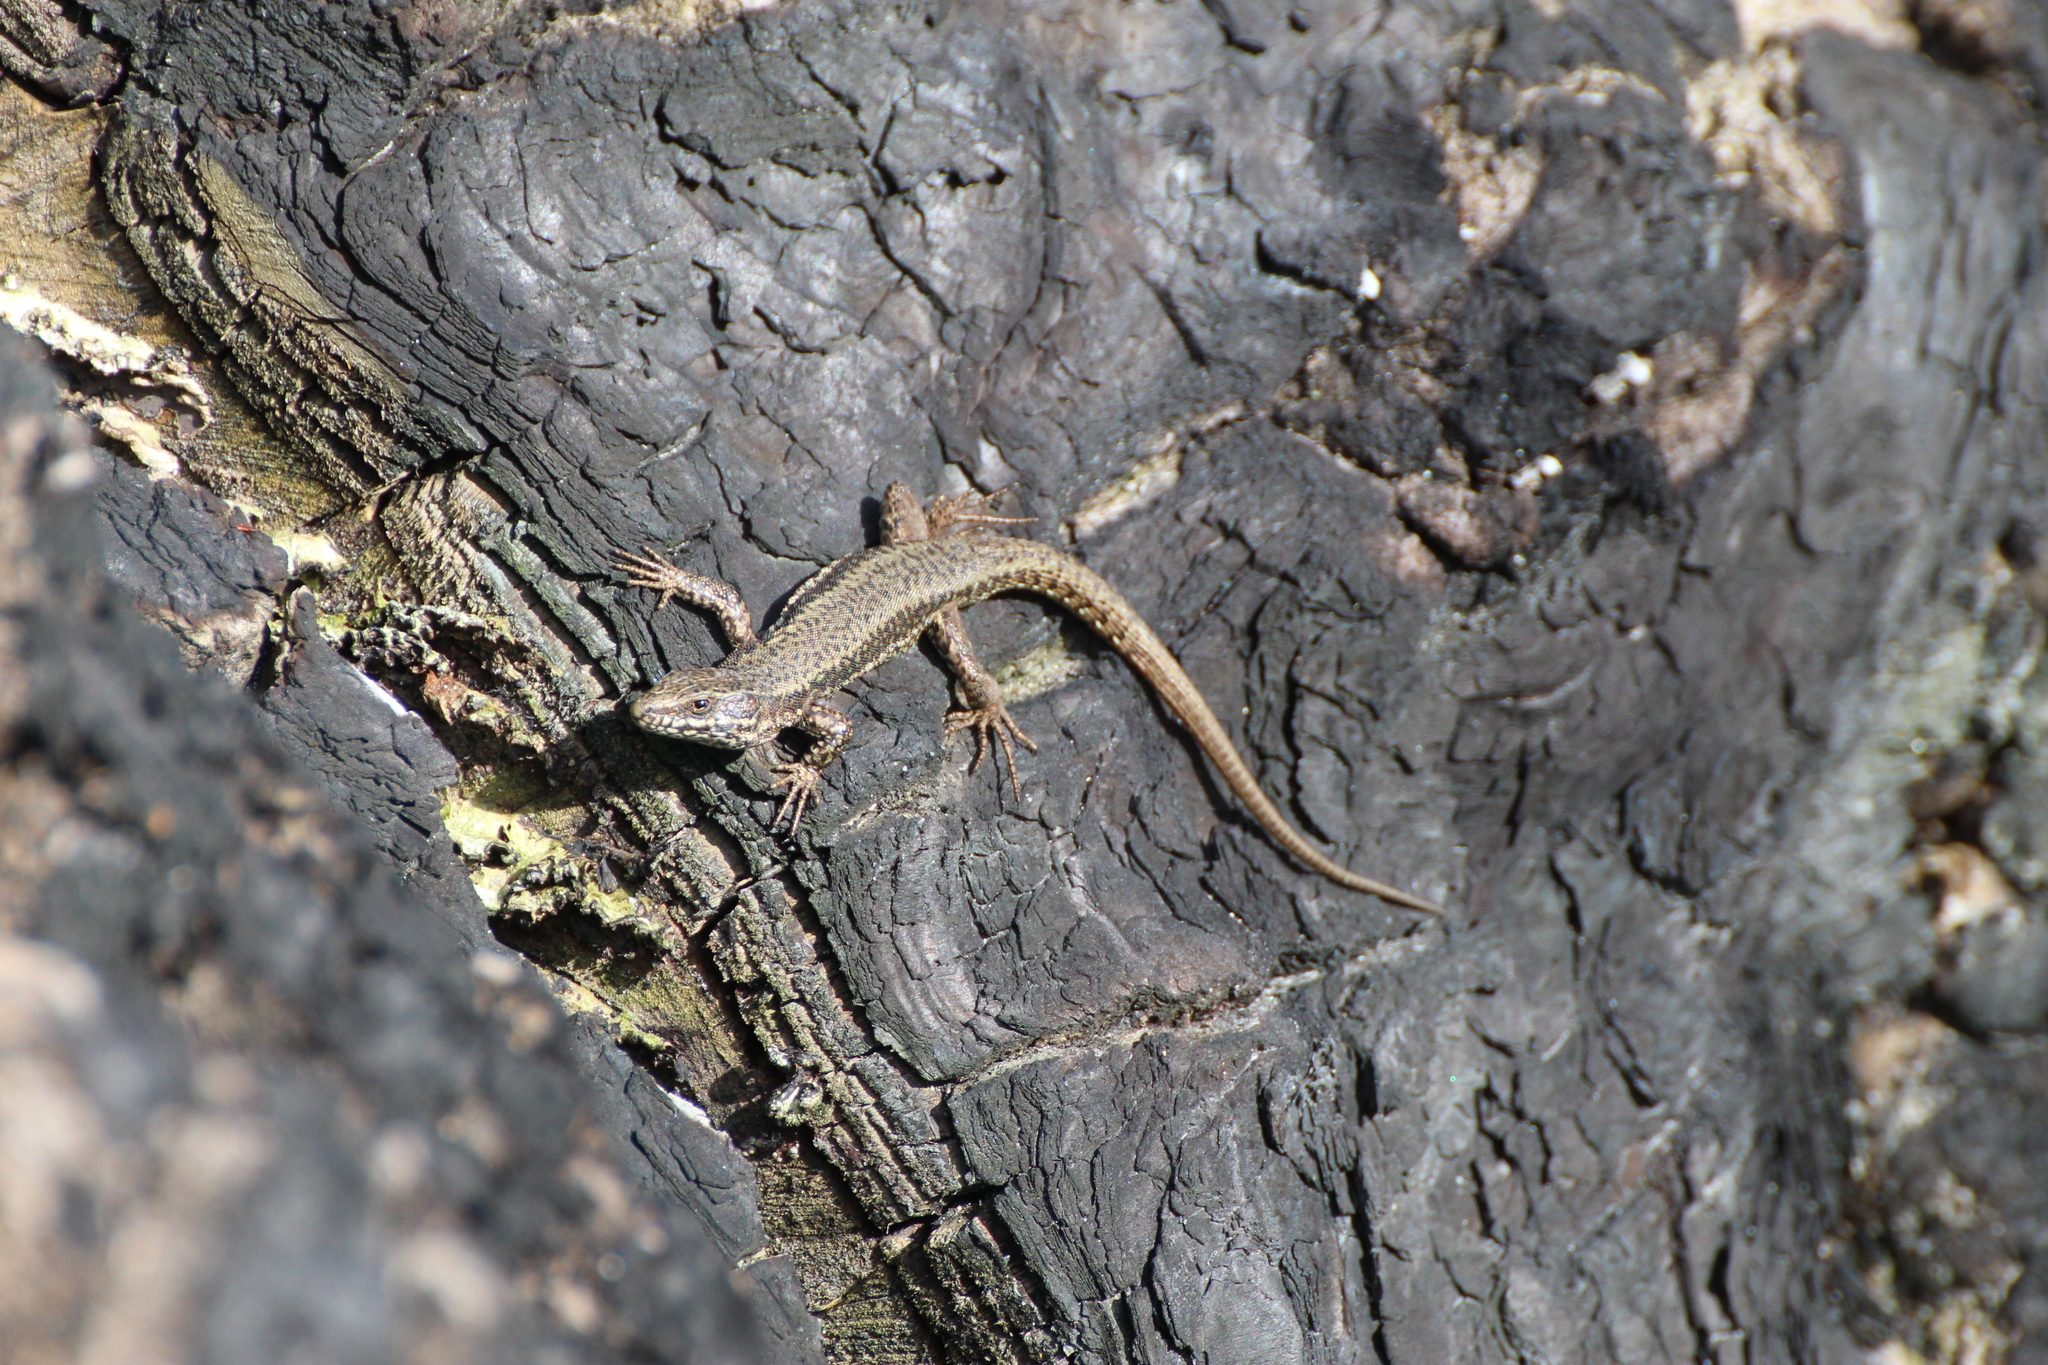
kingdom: Animalia
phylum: Chordata
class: Squamata
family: Lacertidae
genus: Podarcis
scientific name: Podarcis muralis
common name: Common wall lizard
